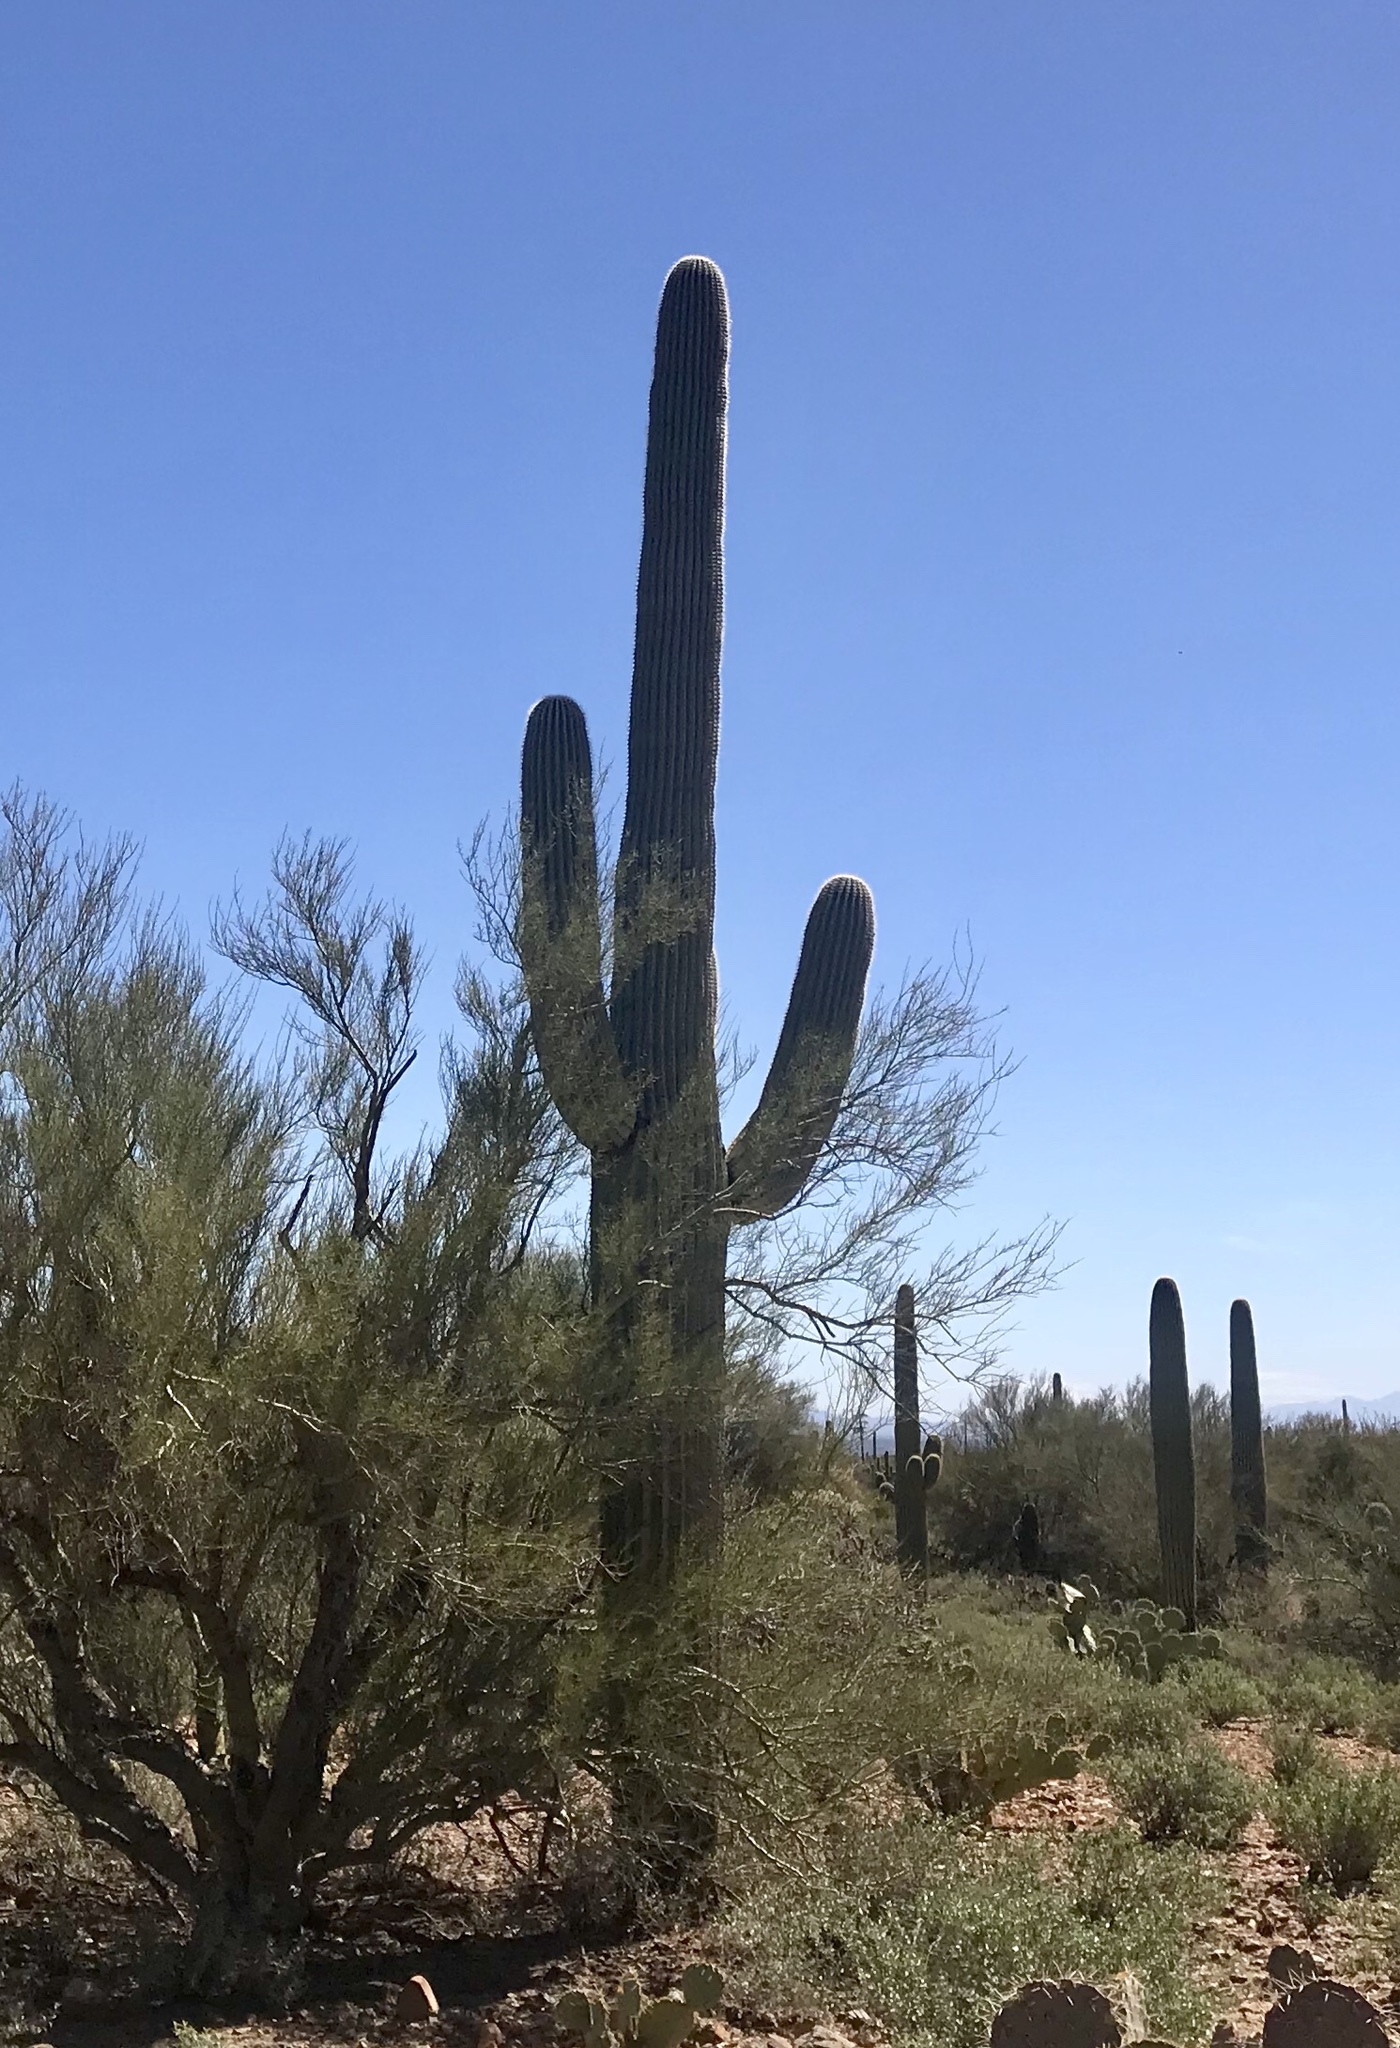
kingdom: Plantae
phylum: Tracheophyta
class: Magnoliopsida
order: Caryophyllales
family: Cactaceae
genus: Carnegiea
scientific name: Carnegiea gigantea
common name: Saguaro
